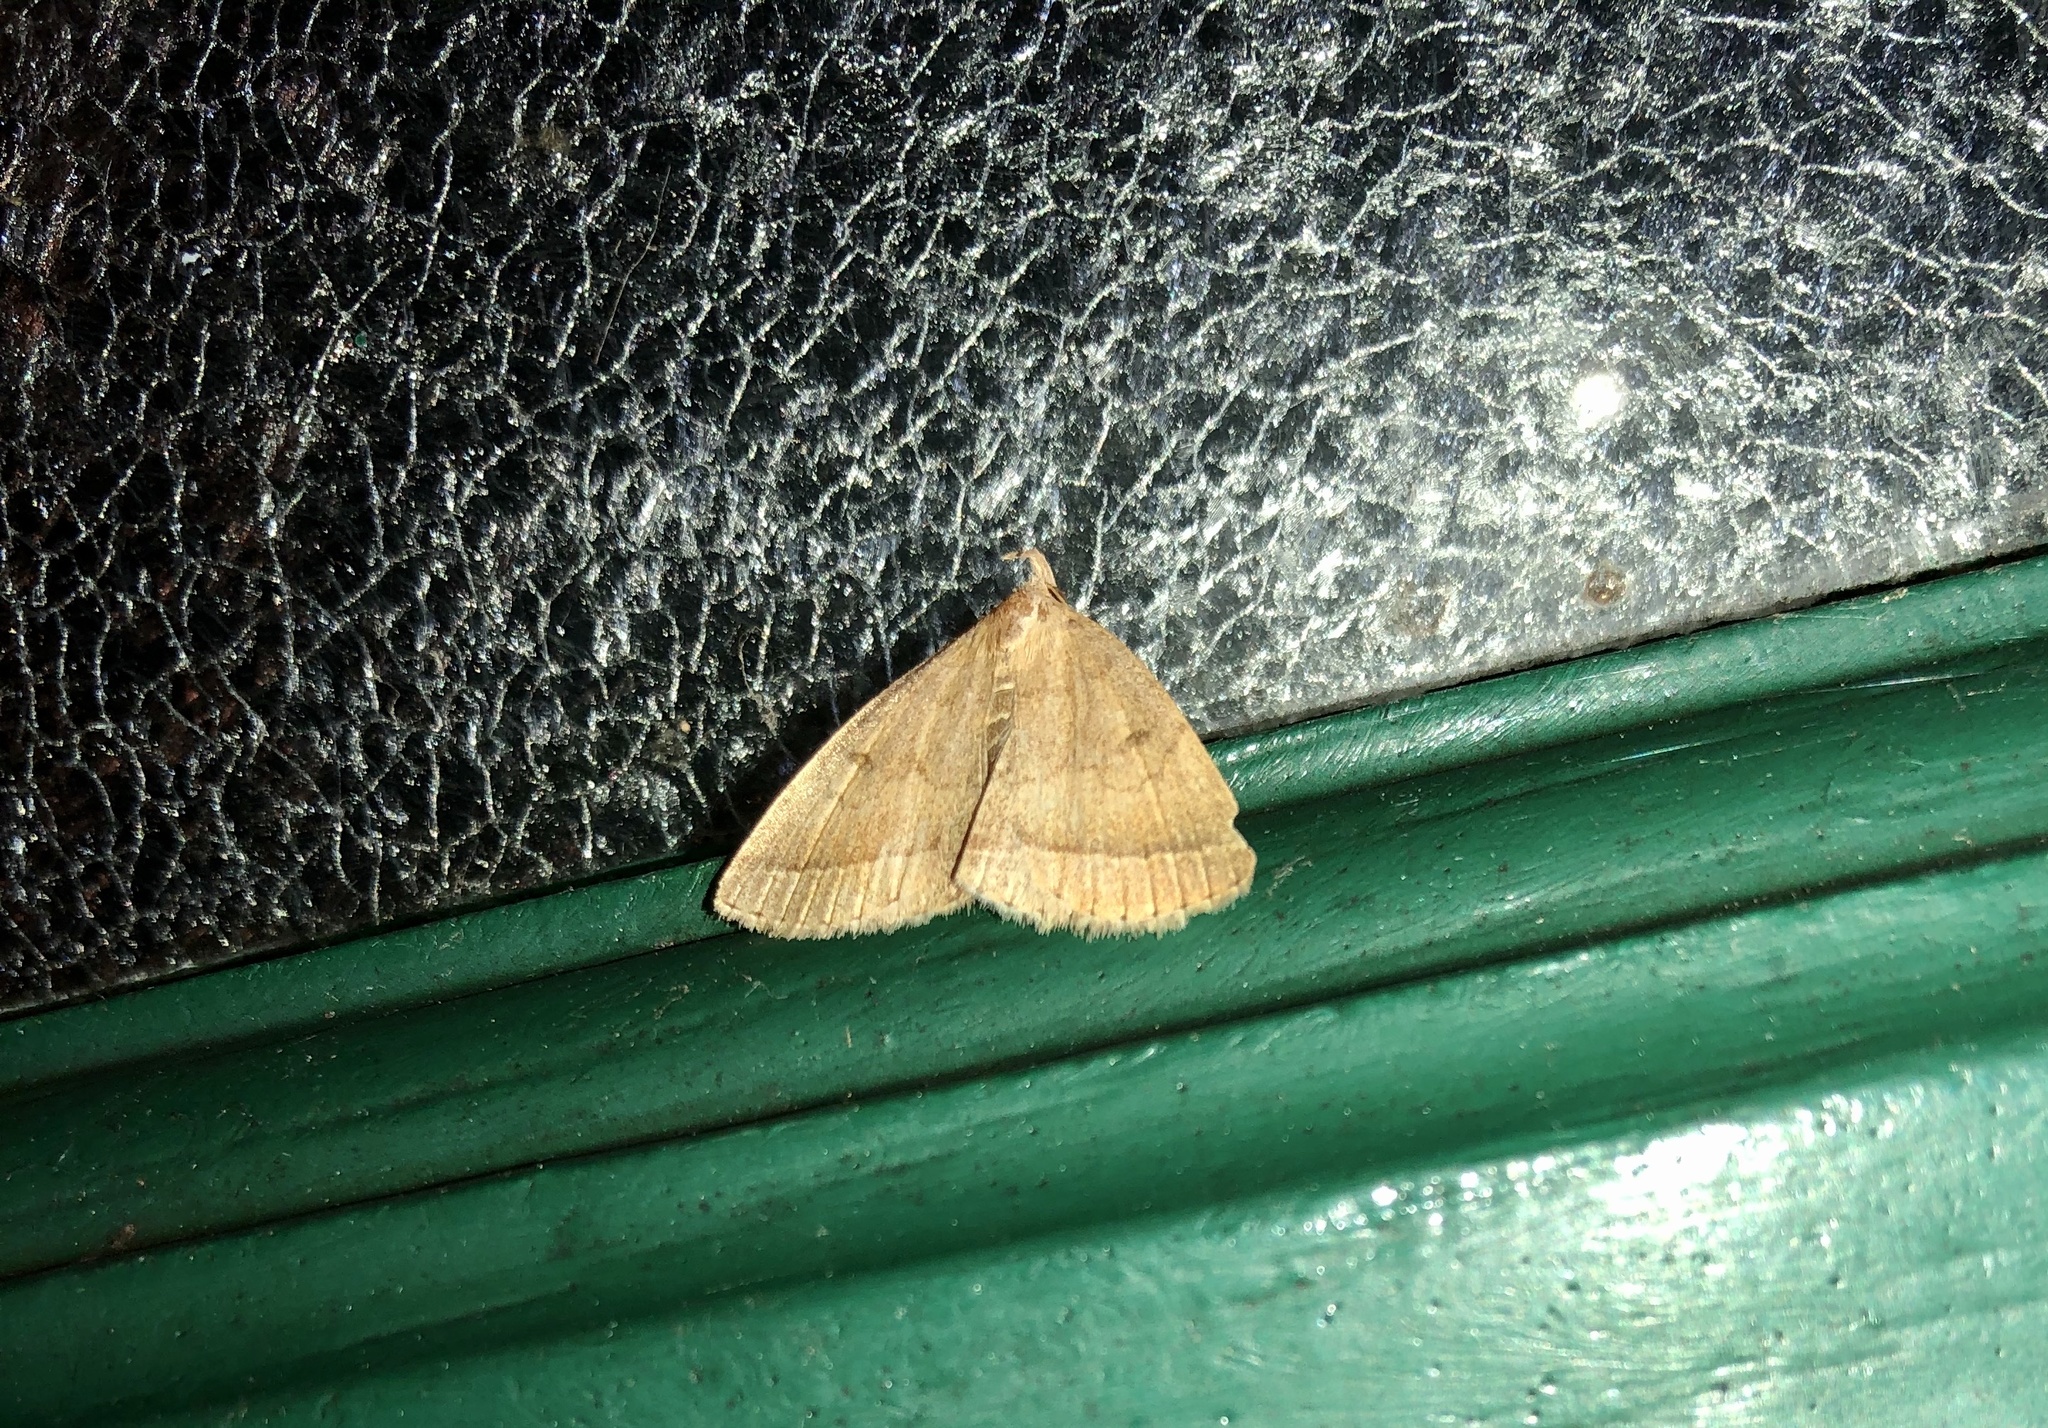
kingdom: Animalia
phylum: Arthropoda
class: Insecta
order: Lepidoptera
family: Erebidae
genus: Zanclognatha
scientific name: Zanclognatha jacchusalis
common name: Yellowish zanclognatha
